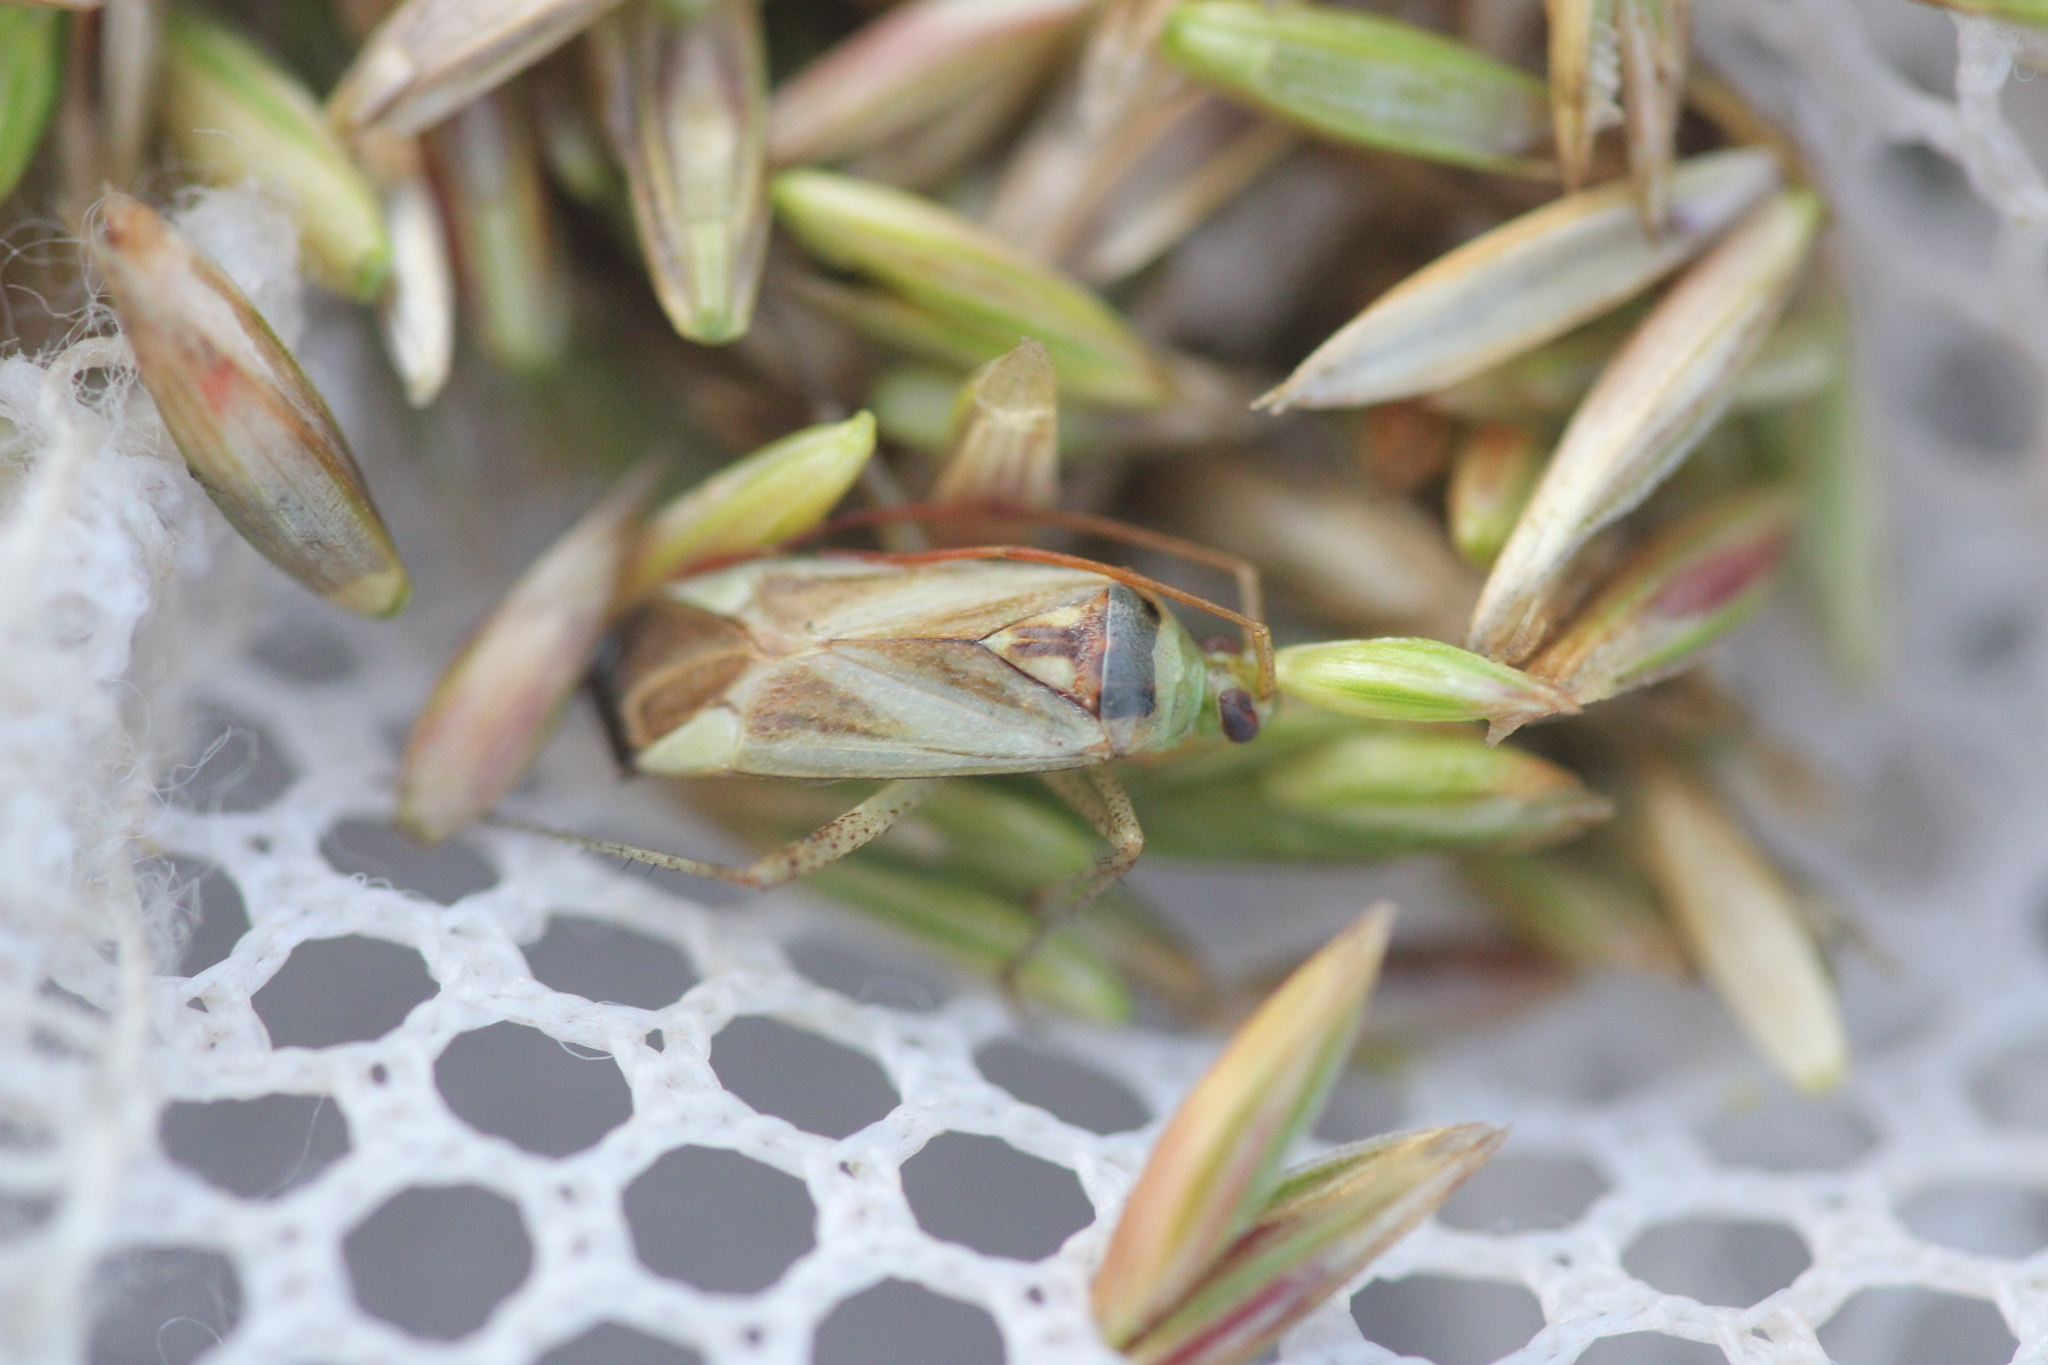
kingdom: Animalia
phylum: Arthropoda
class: Insecta
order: Hemiptera
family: Miridae
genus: Adelphocoris
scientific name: Adelphocoris lineolatus
